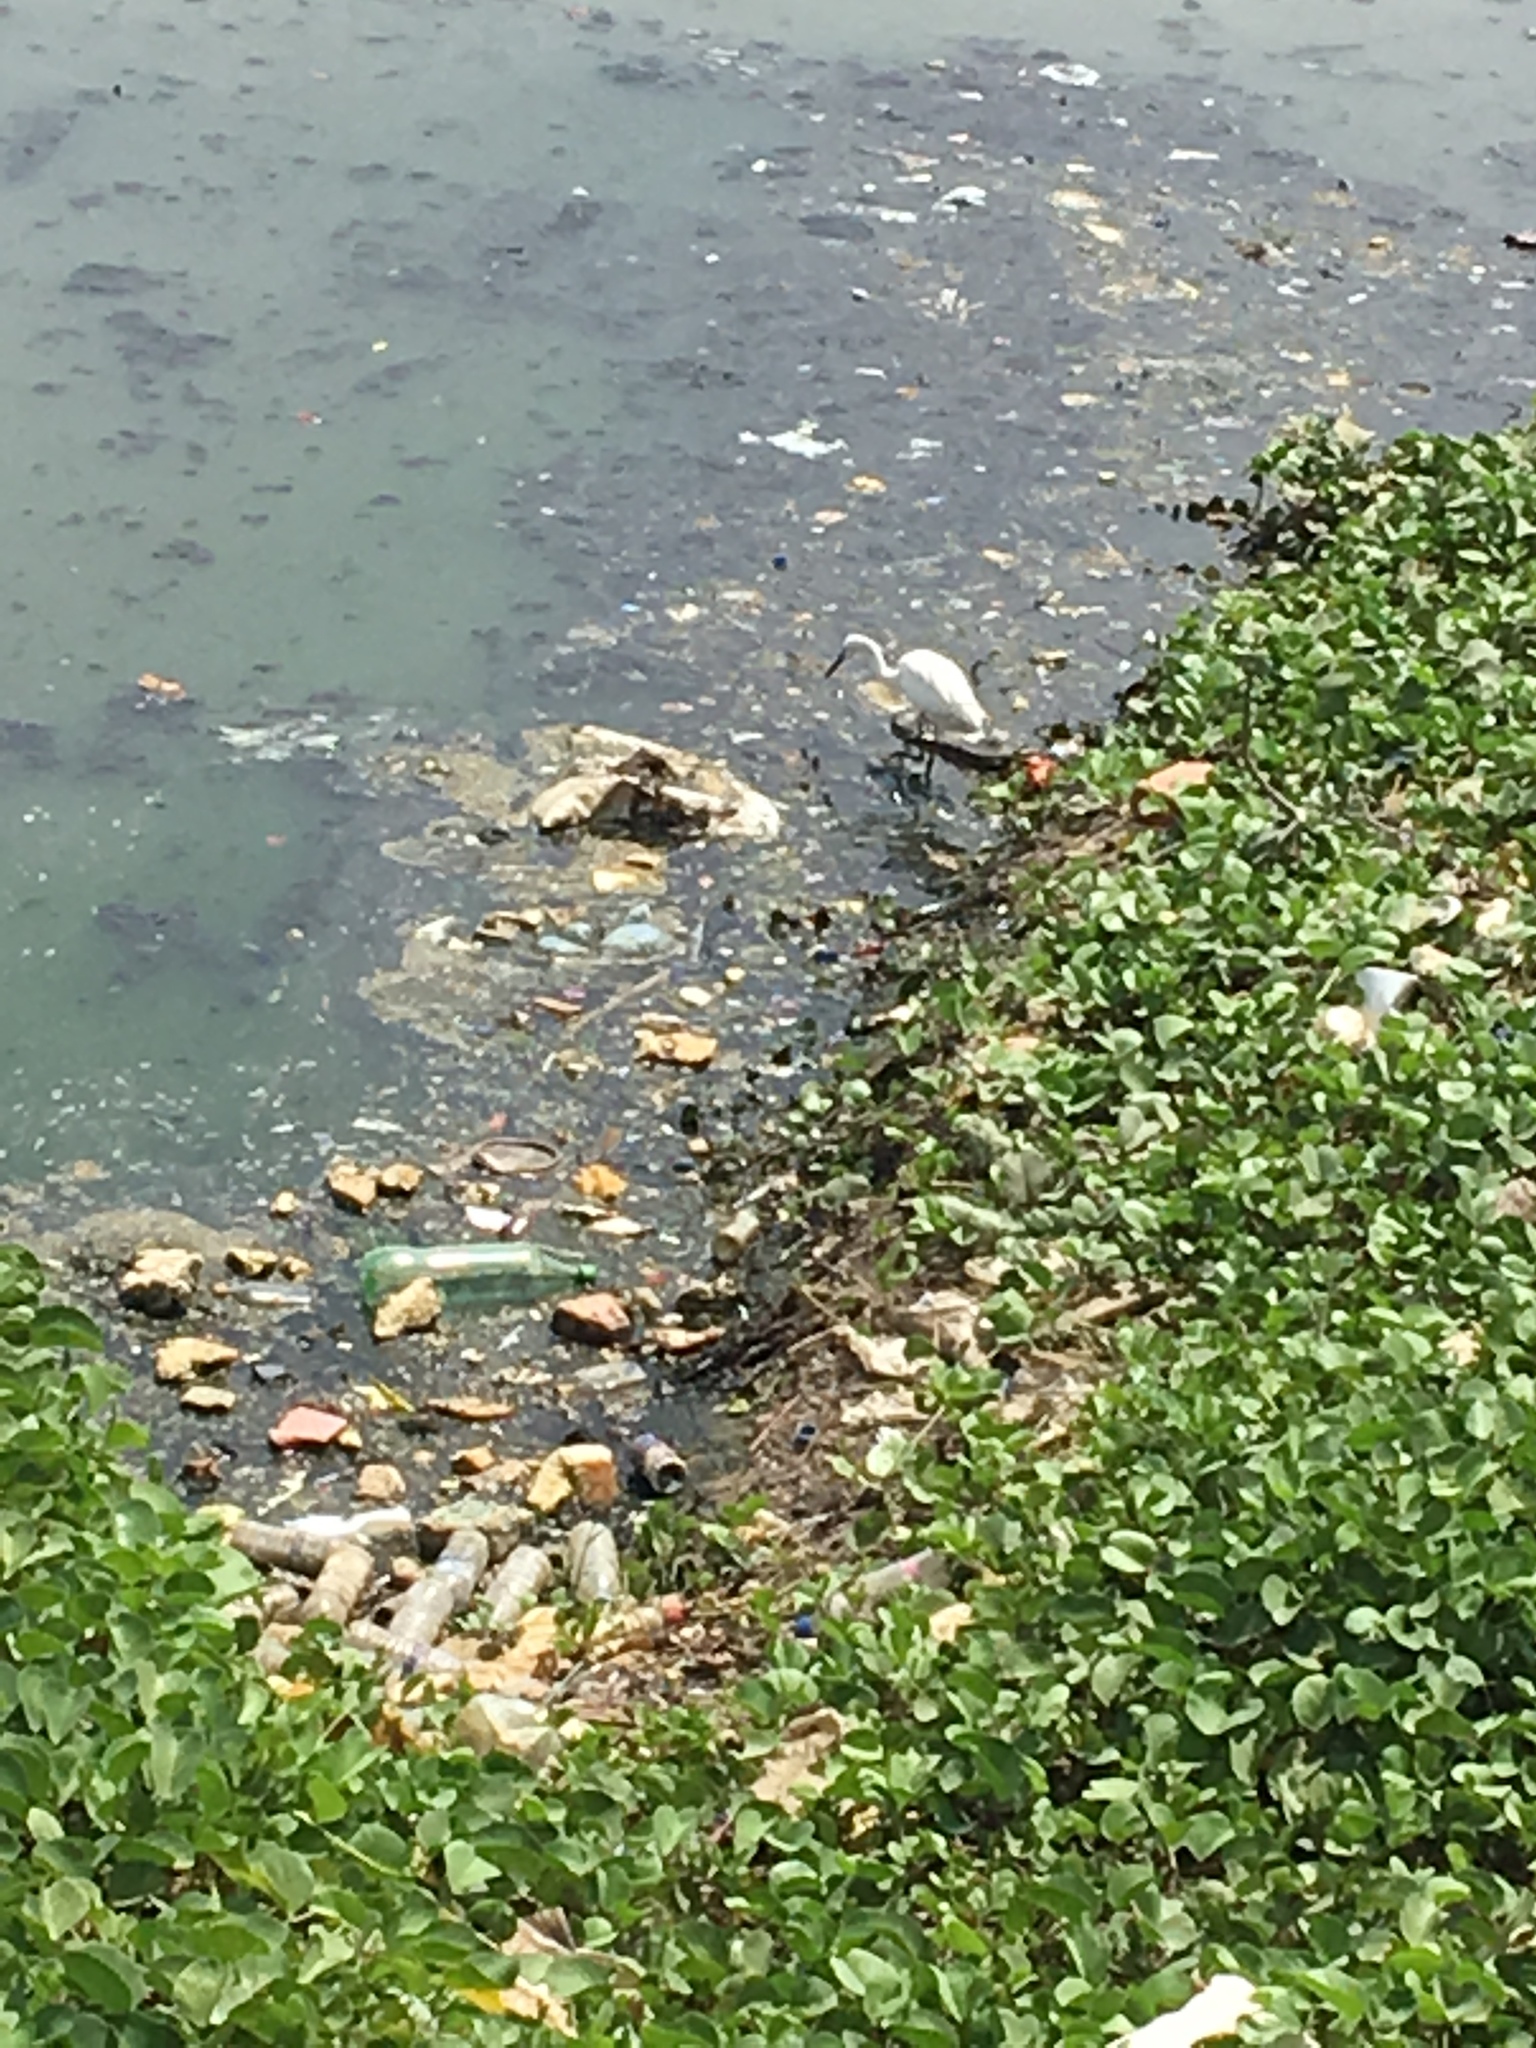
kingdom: Animalia
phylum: Chordata
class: Aves
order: Pelecaniformes
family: Ardeidae
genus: Egretta
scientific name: Egretta intermedia
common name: Intermediate egret
